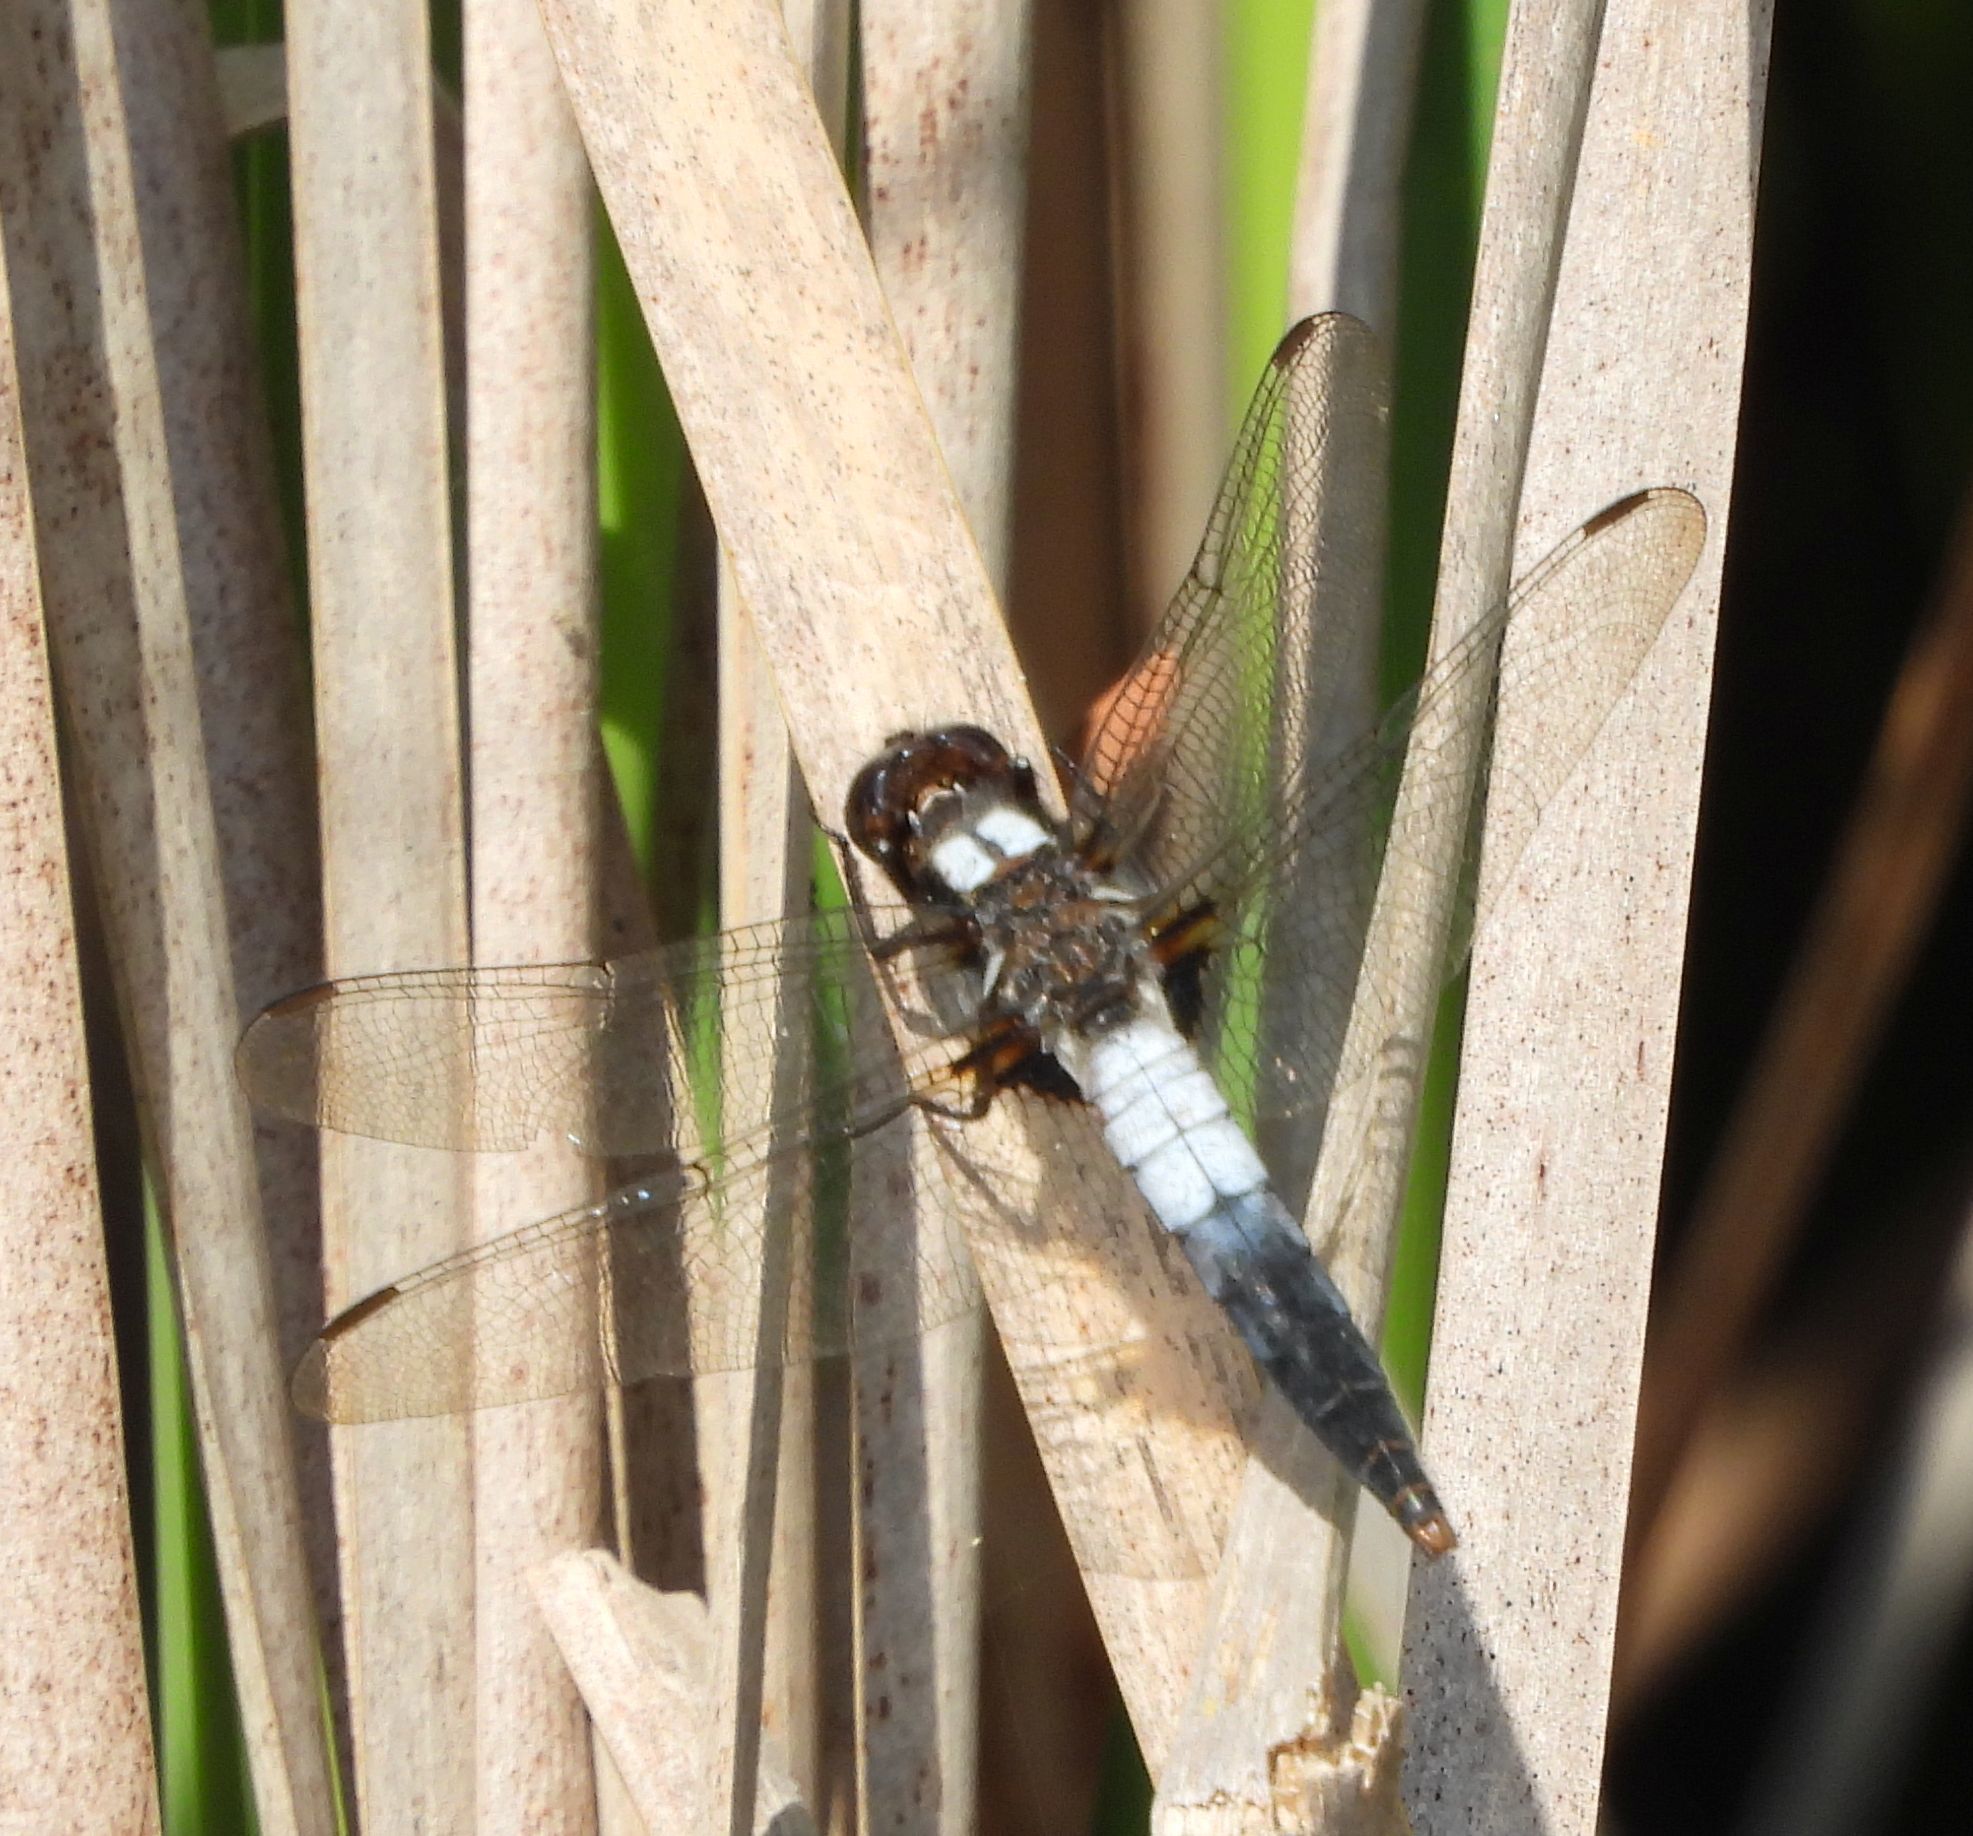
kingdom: Animalia
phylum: Arthropoda
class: Insecta
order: Odonata
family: Libellulidae
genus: Ladona
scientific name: Ladona julia
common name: Chalk-fronted corporal
